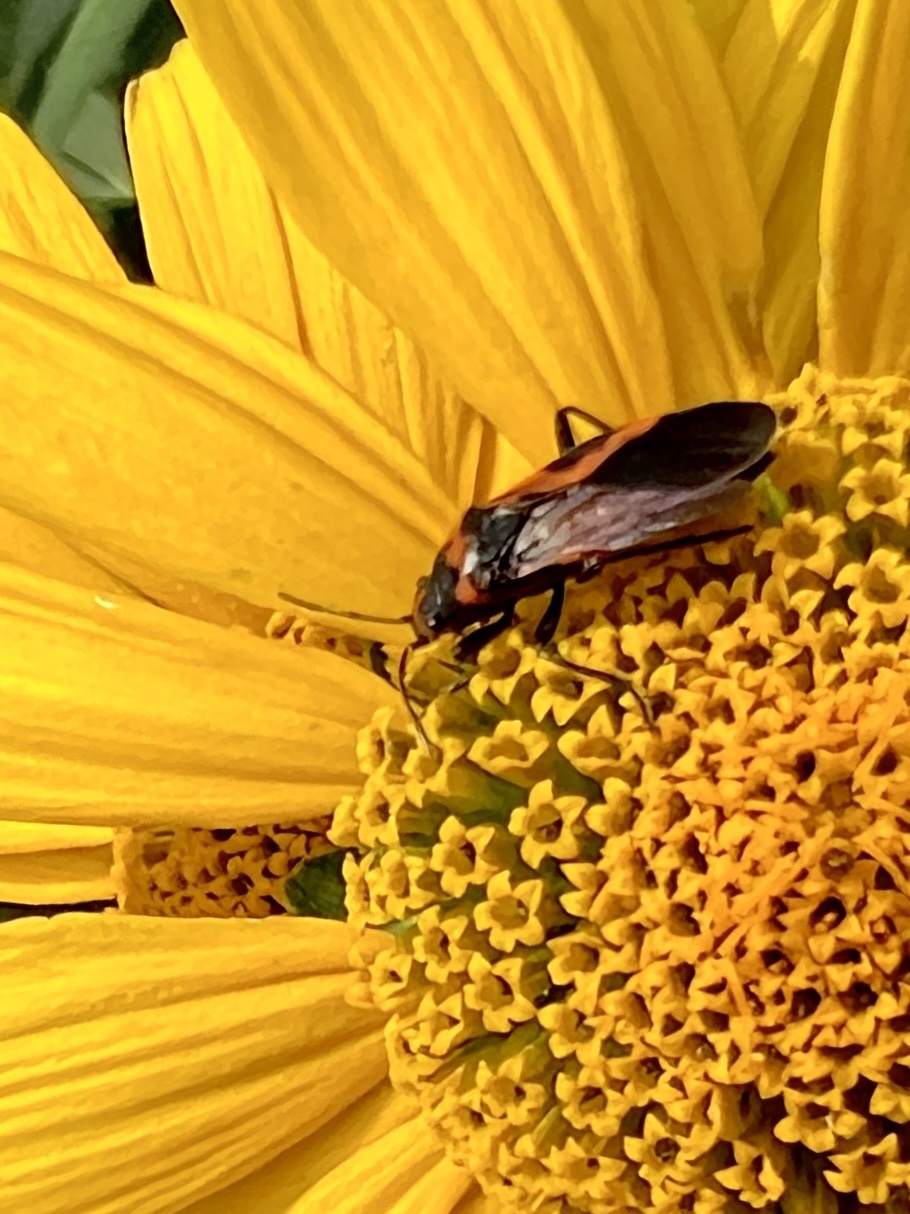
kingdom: Animalia
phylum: Arthropoda
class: Insecta
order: Hemiptera
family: Lygaeidae
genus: Lygaeus
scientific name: Lygaeus turcicus
